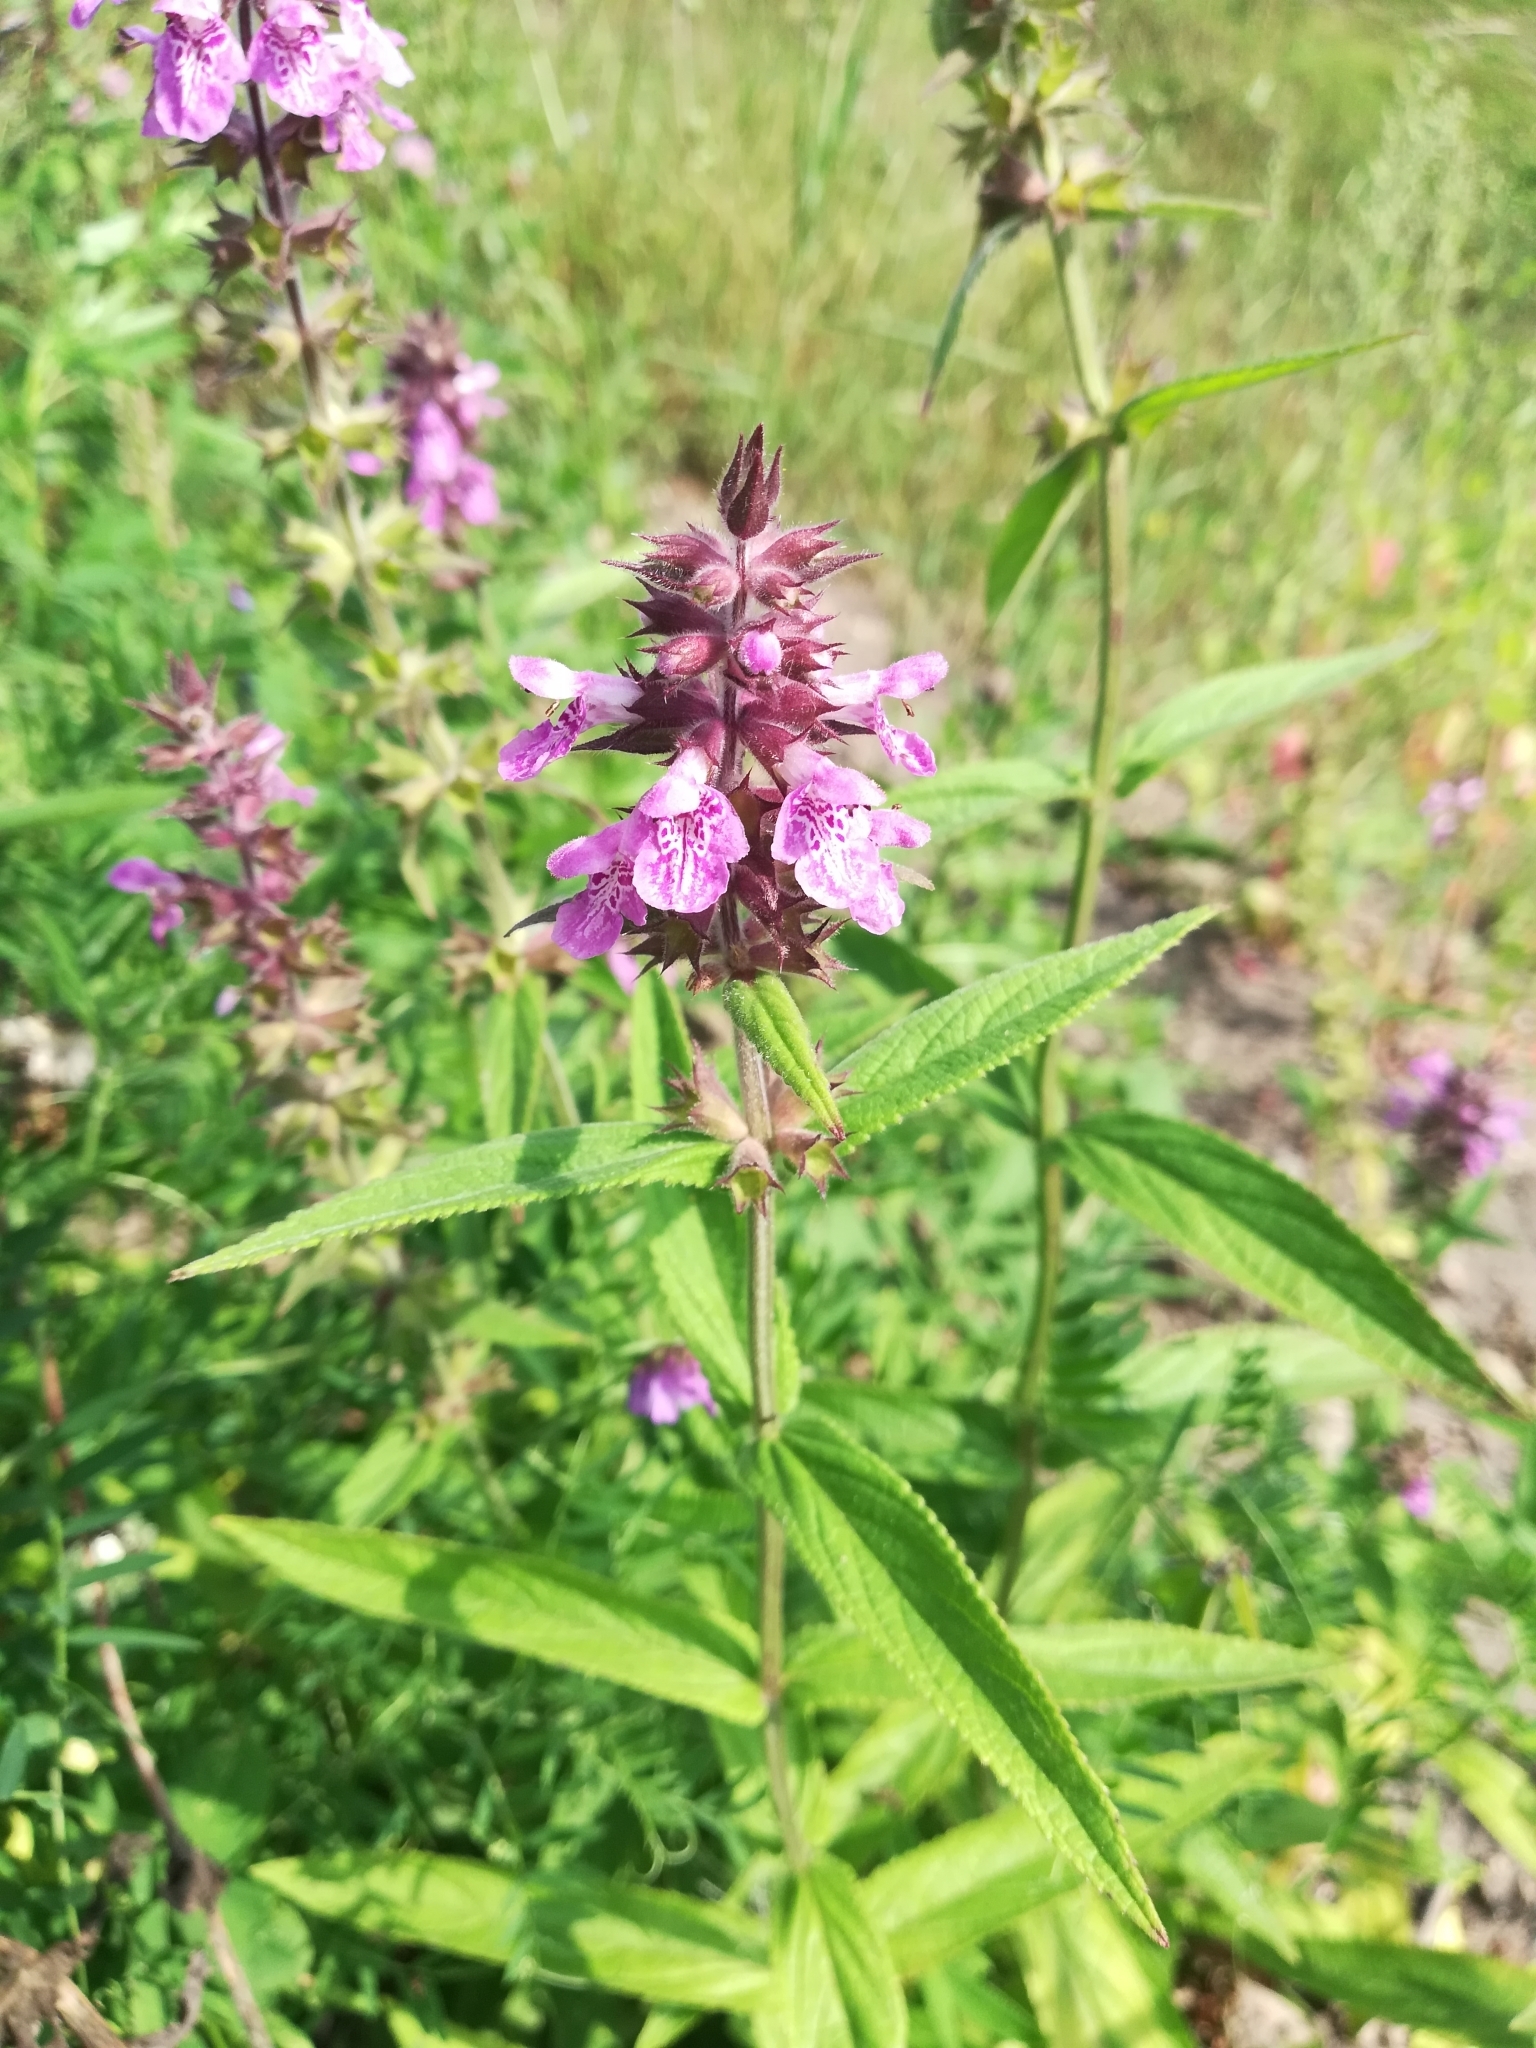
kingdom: Plantae
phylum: Tracheophyta
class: Magnoliopsida
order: Lamiales
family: Lamiaceae
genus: Stachys
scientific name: Stachys palustris
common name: Marsh woundwort
